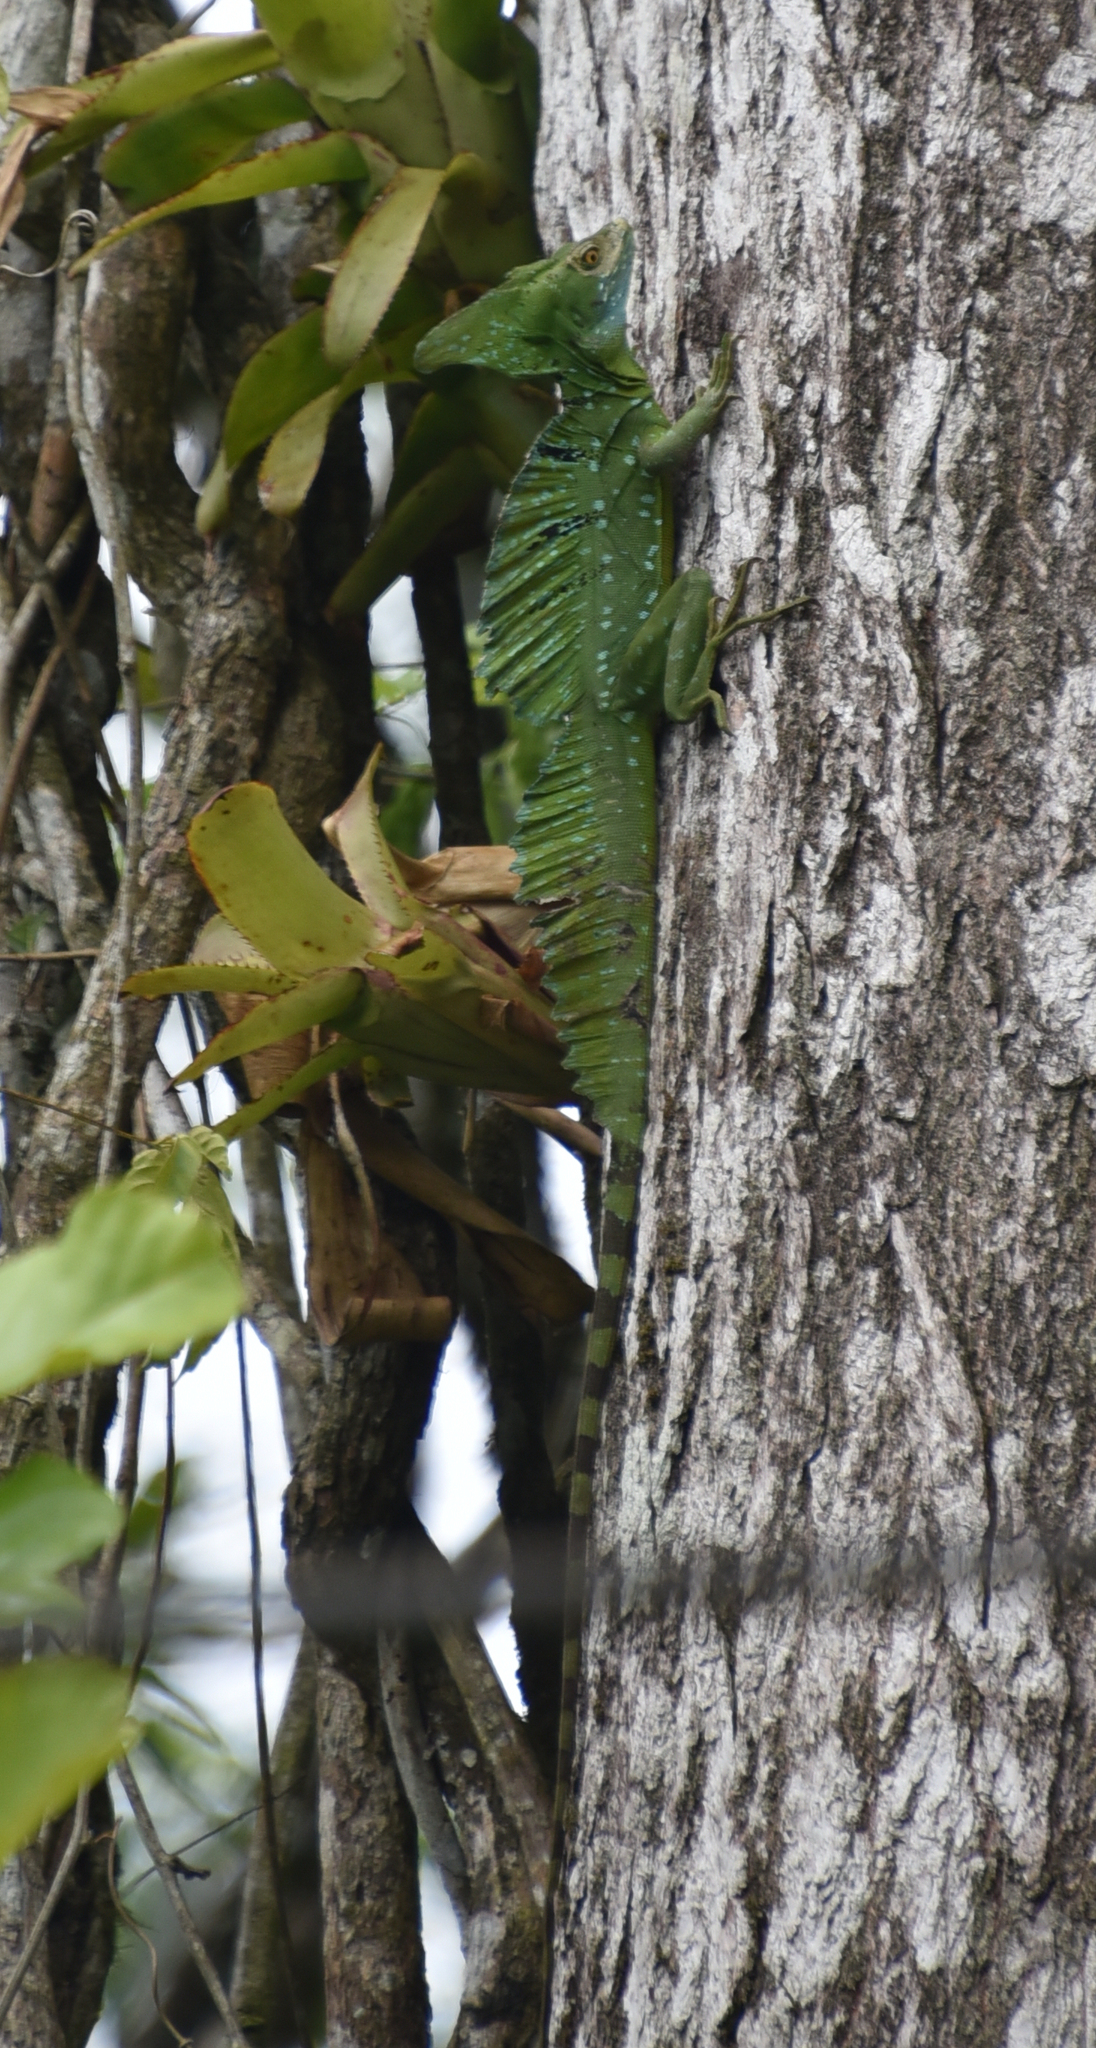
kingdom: Animalia
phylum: Chordata
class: Squamata
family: Corytophanidae
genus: Basiliscus
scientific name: Basiliscus plumifrons
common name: Green basilisk
